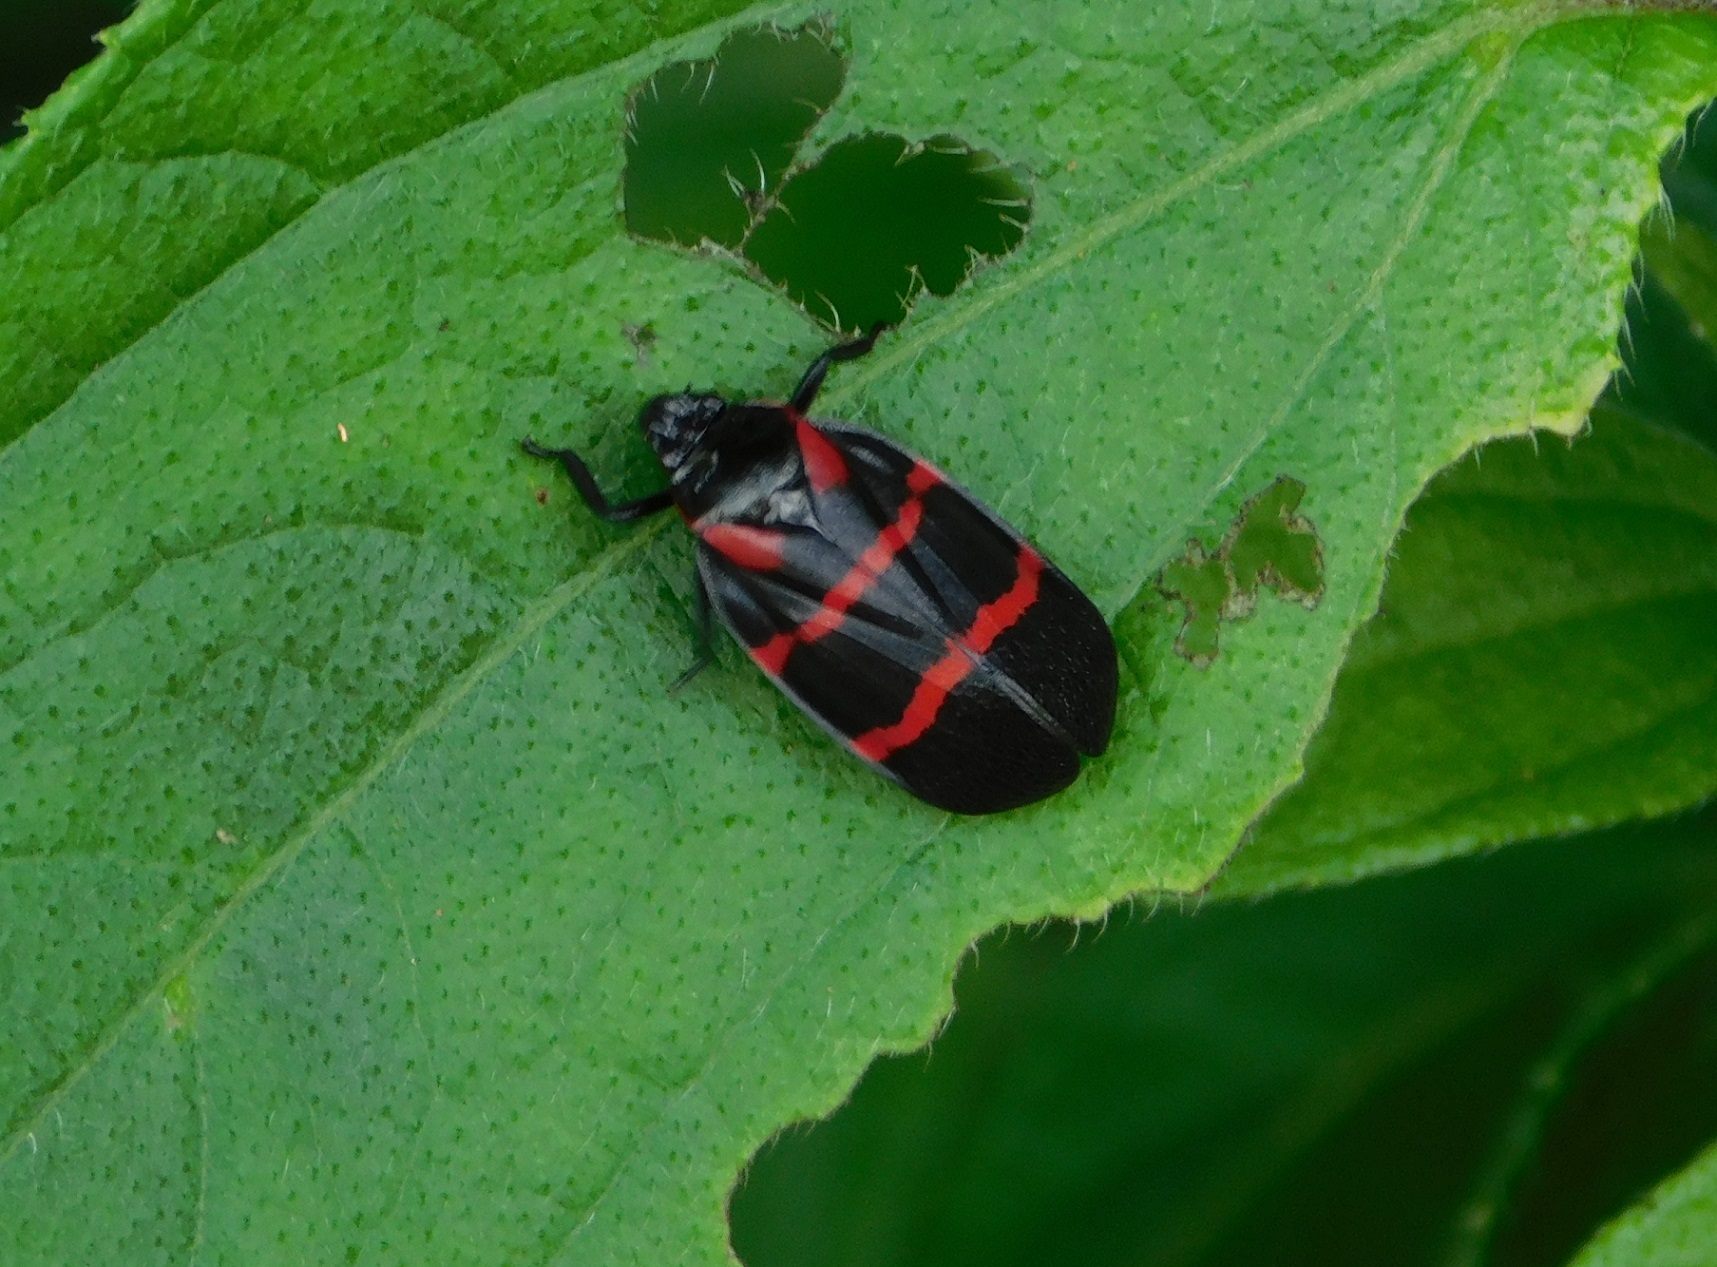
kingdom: Animalia
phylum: Arthropoda
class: Insecta
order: Hemiptera
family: Cercopidae
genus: Huaina
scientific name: Huaina inca
